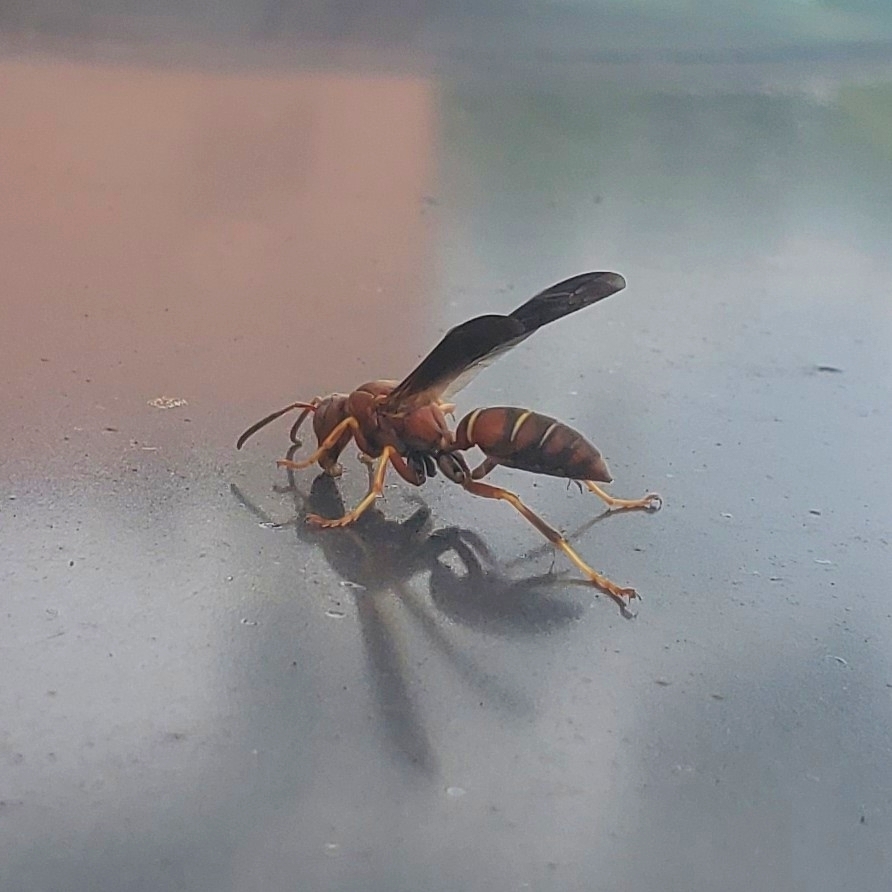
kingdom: Animalia
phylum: Arthropoda
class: Insecta
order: Hymenoptera
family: Eumenidae
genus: Polistes
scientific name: Polistes fuscatus
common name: Dark paper wasp
